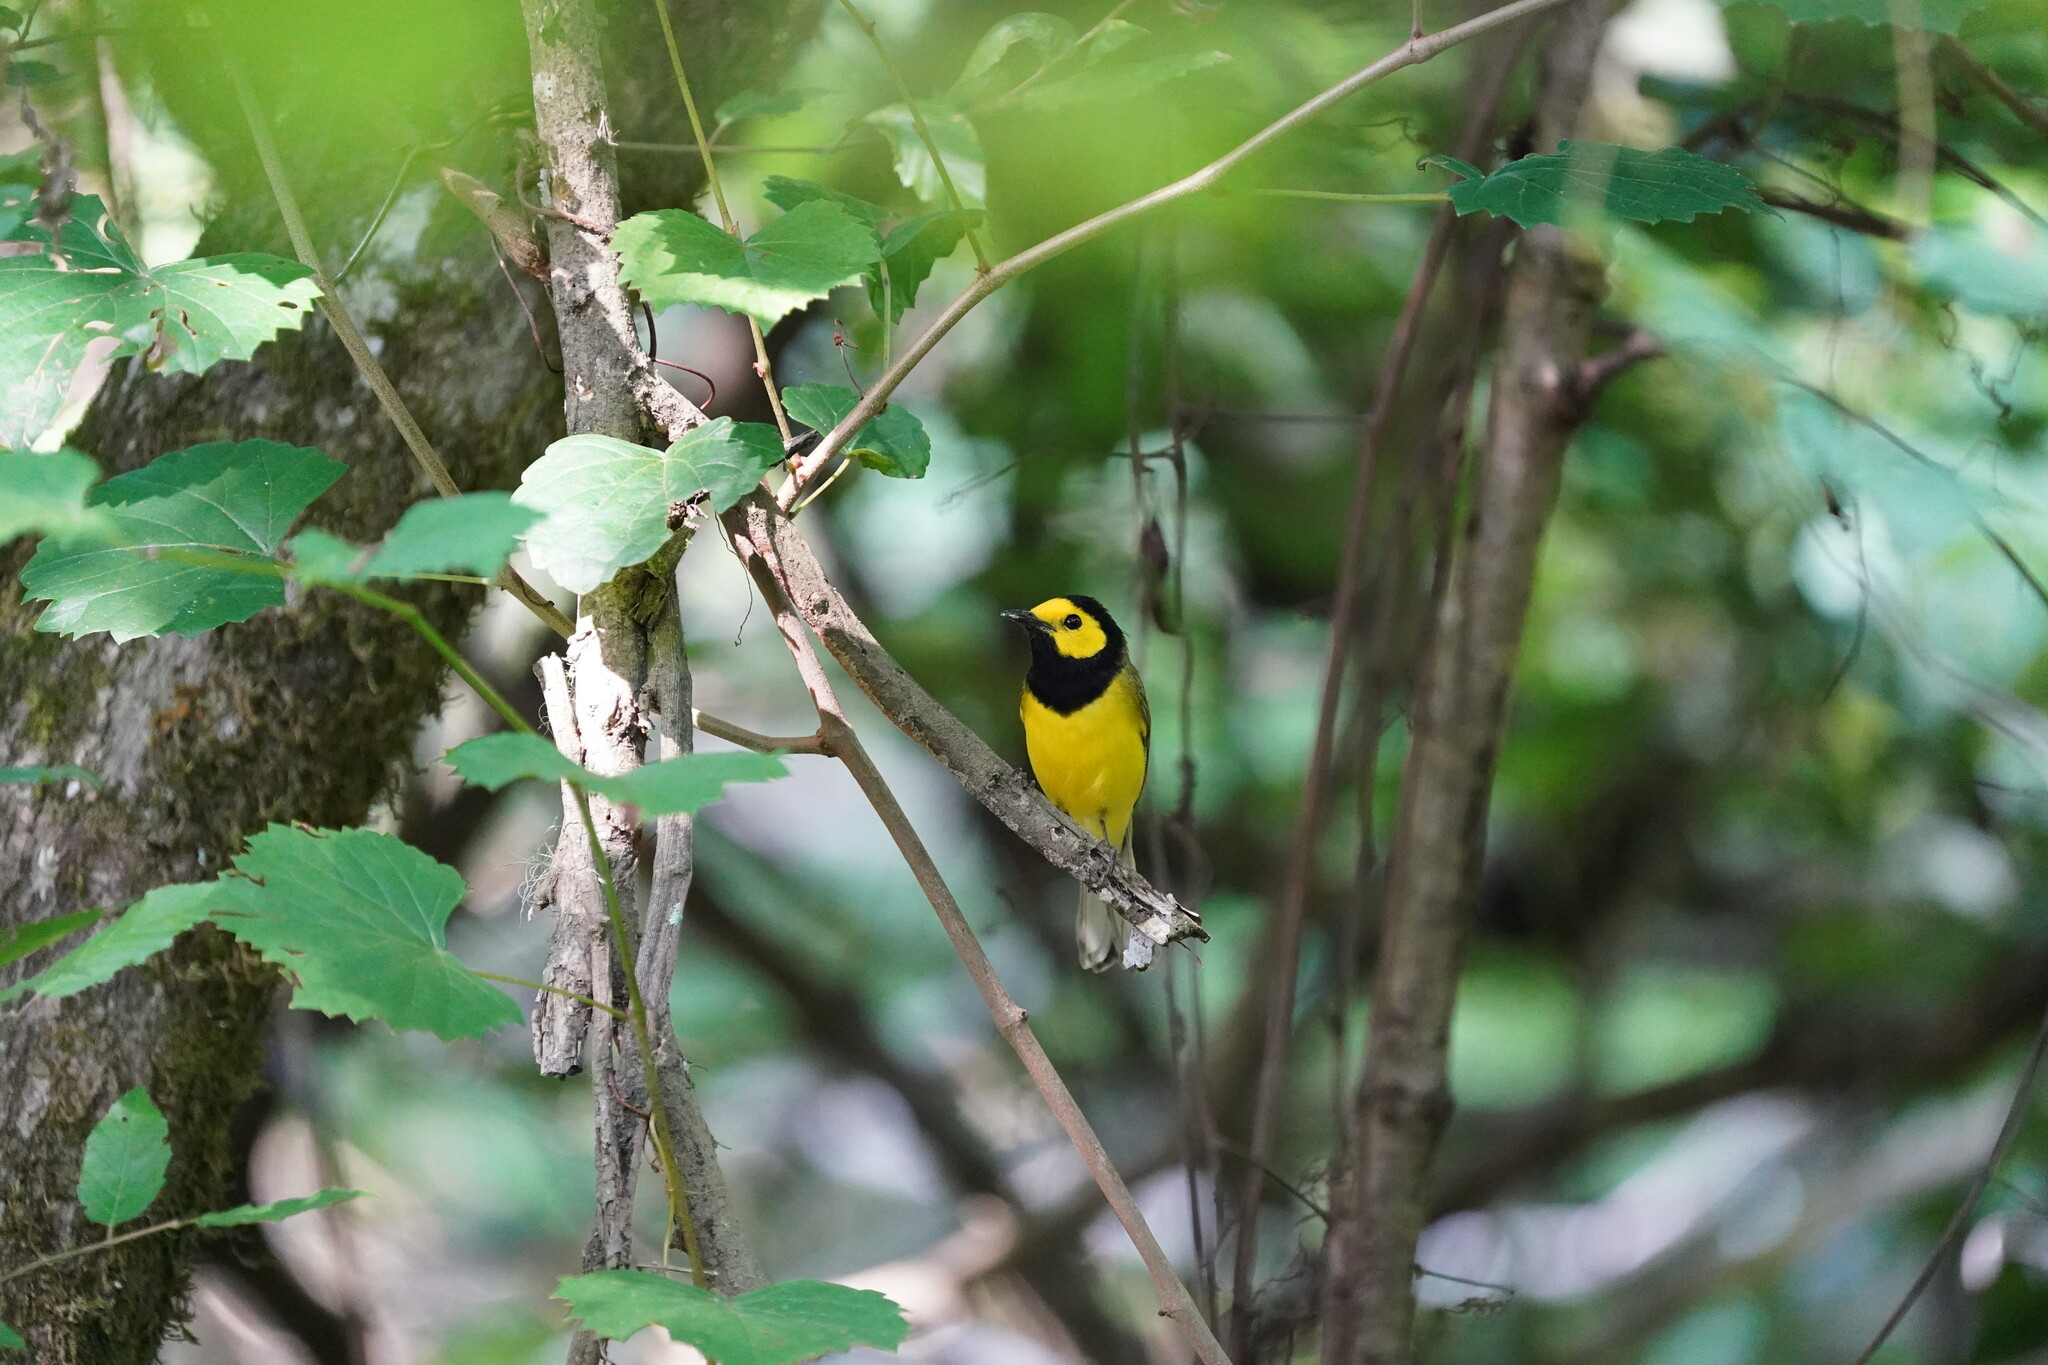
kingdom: Animalia
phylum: Chordata
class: Aves
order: Passeriformes
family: Parulidae
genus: Setophaga
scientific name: Setophaga citrina
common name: Hooded warbler
